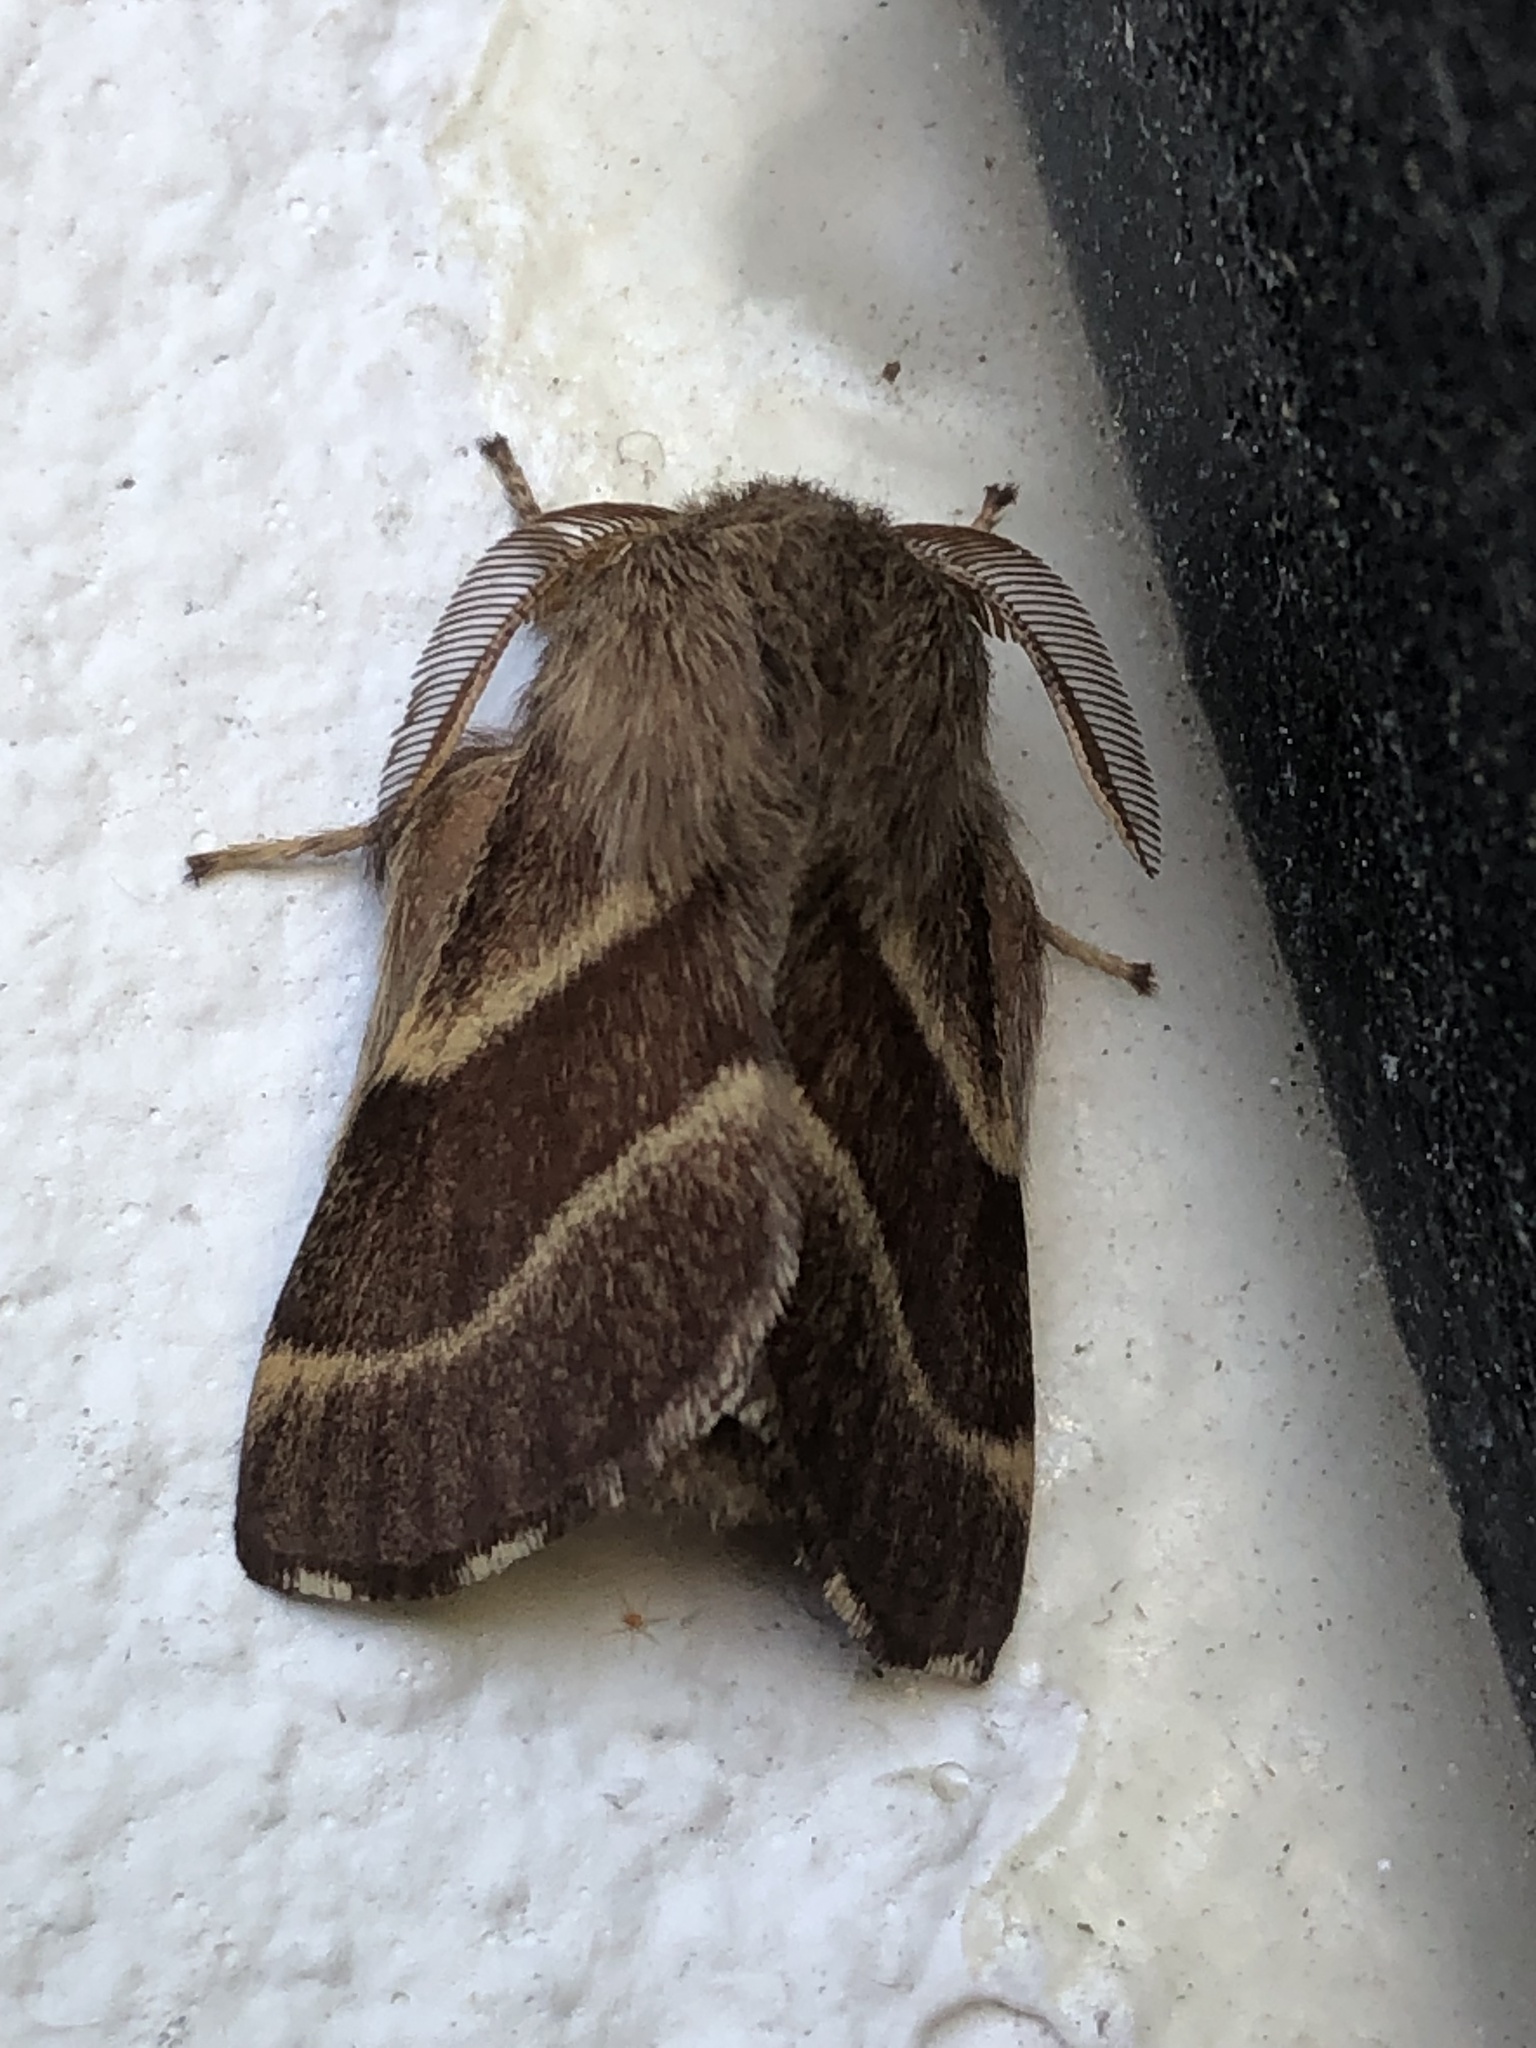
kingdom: Animalia
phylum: Arthropoda
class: Insecta
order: Lepidoptera
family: Lasiocampidae
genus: Malacosoma
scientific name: Malacosoma californica
